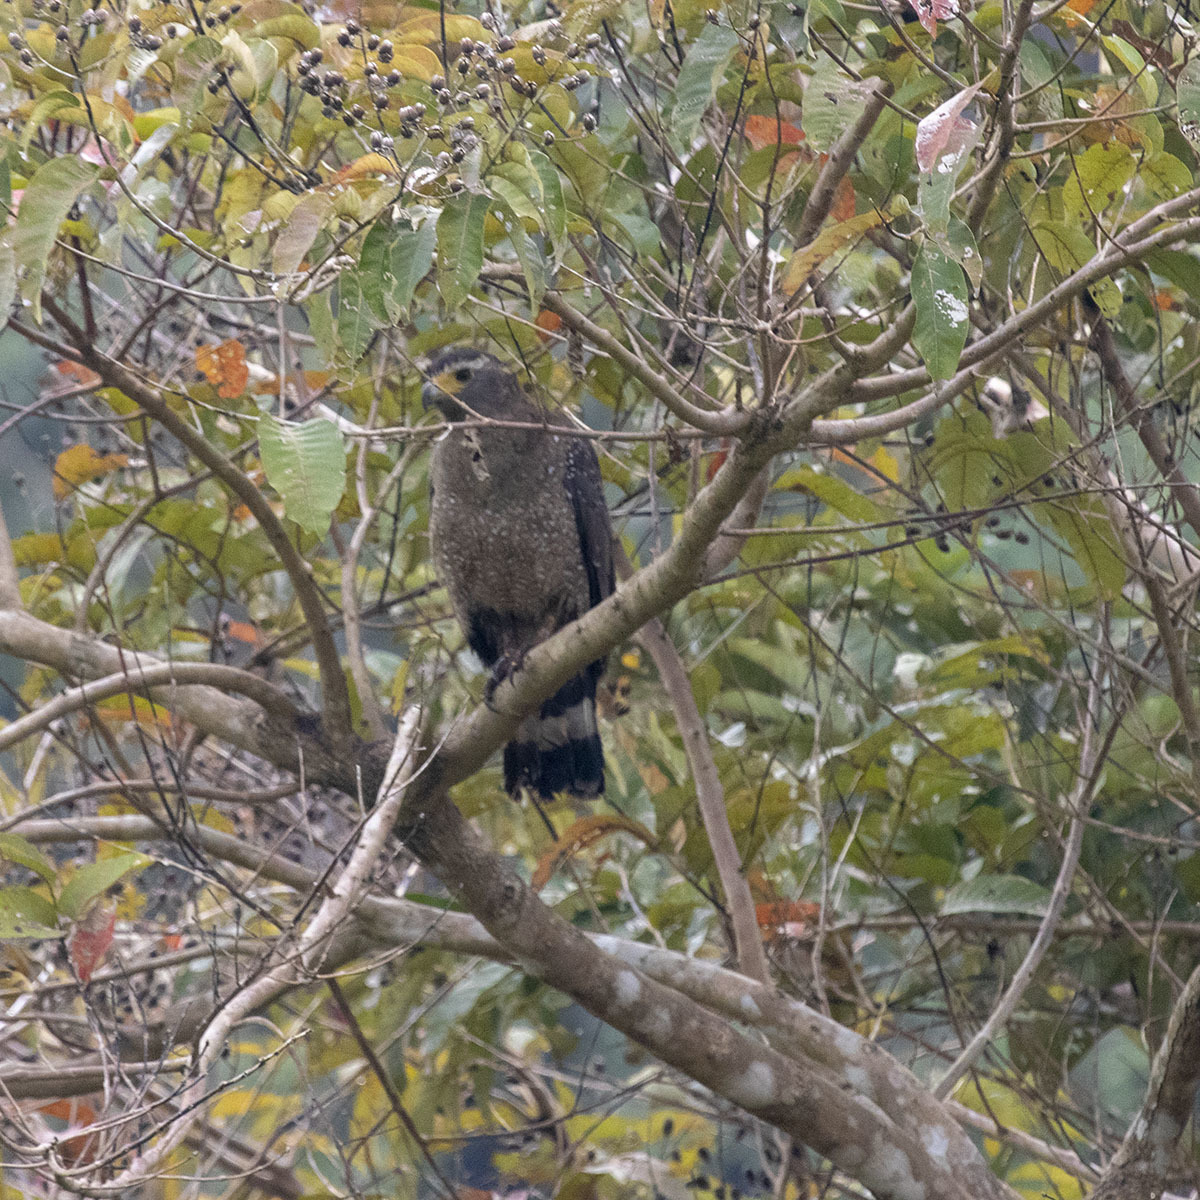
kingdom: Animalia
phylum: Chordata
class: Aves
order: Accipitriformes
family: Accipitridae
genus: Spilornis
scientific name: Spilornis elgini
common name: Andaman serpent eagle
